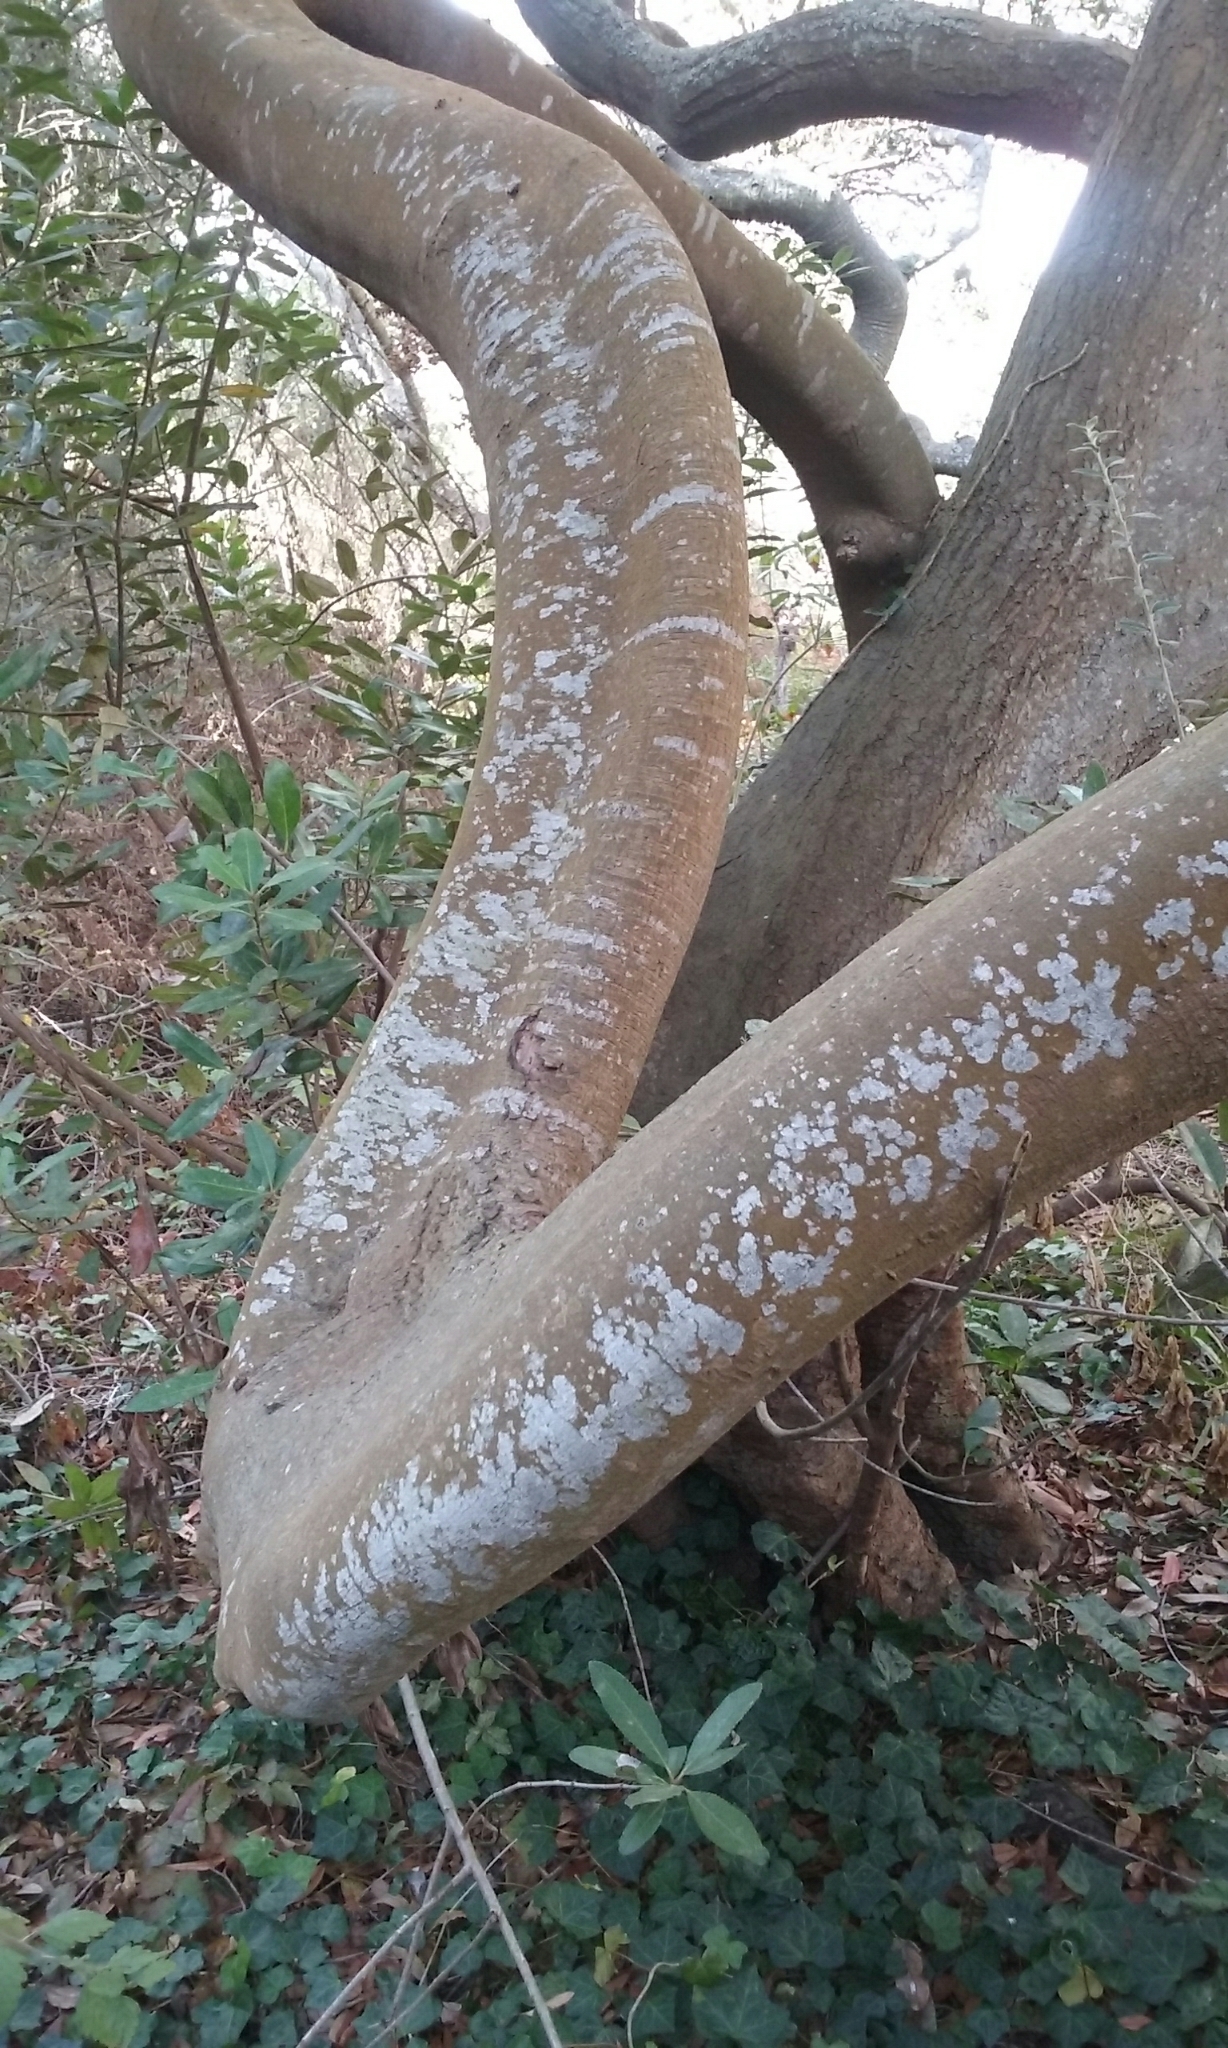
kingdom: Plantae
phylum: Tracheophyta
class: Magnoliopsida
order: Rosales
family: Rosaceae
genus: Heteromeles
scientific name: Heteromeles arbutifolia
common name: California-holly
